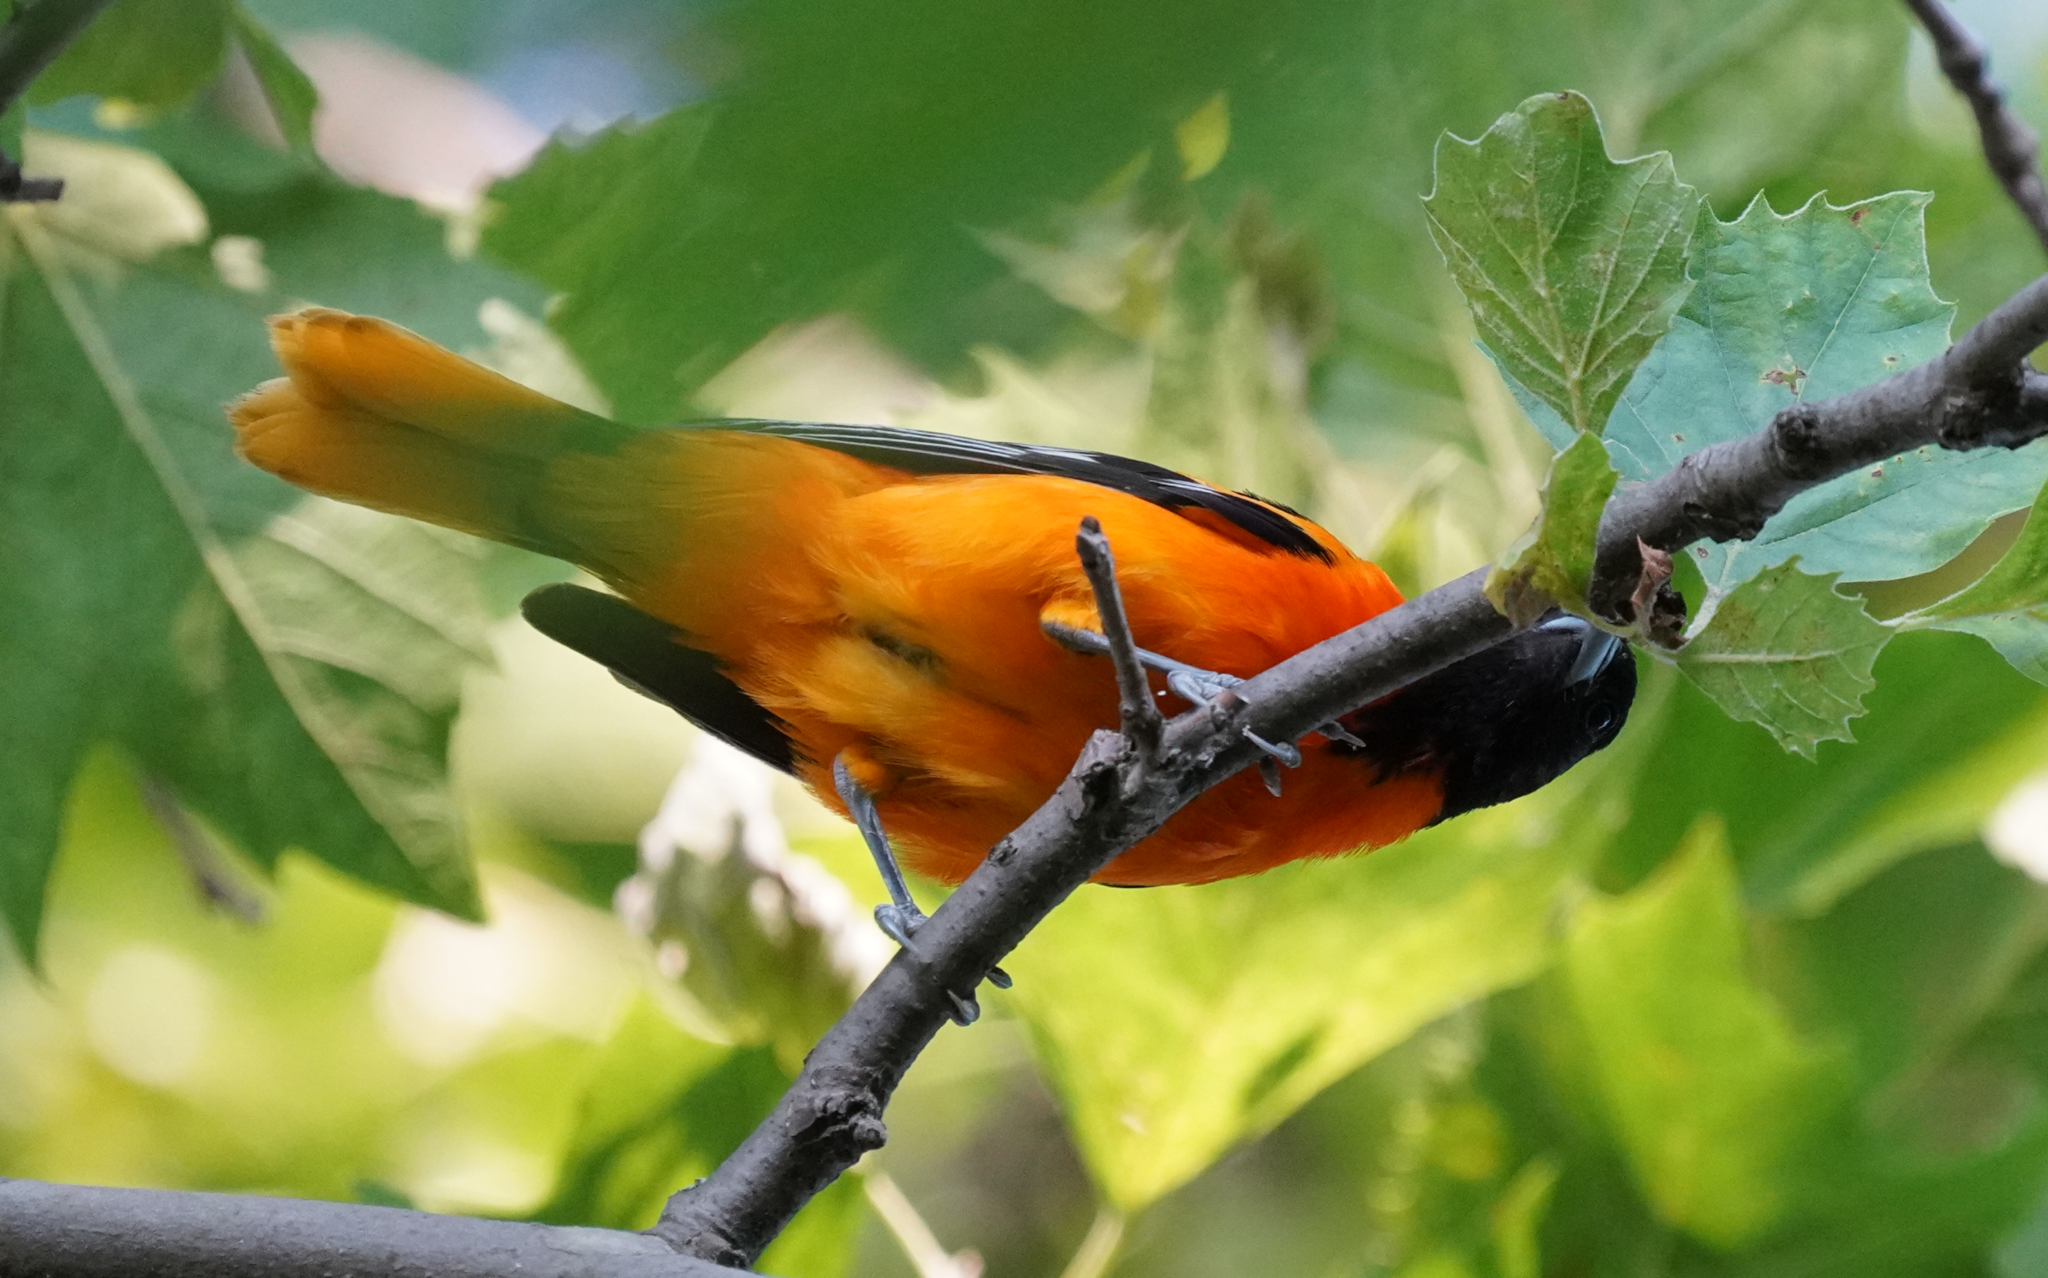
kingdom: Animalia
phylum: Chordata
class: Aves
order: Passeriformes
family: Icteridae
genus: Icterus
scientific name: Icterus galbula
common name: Baltimore oriole
